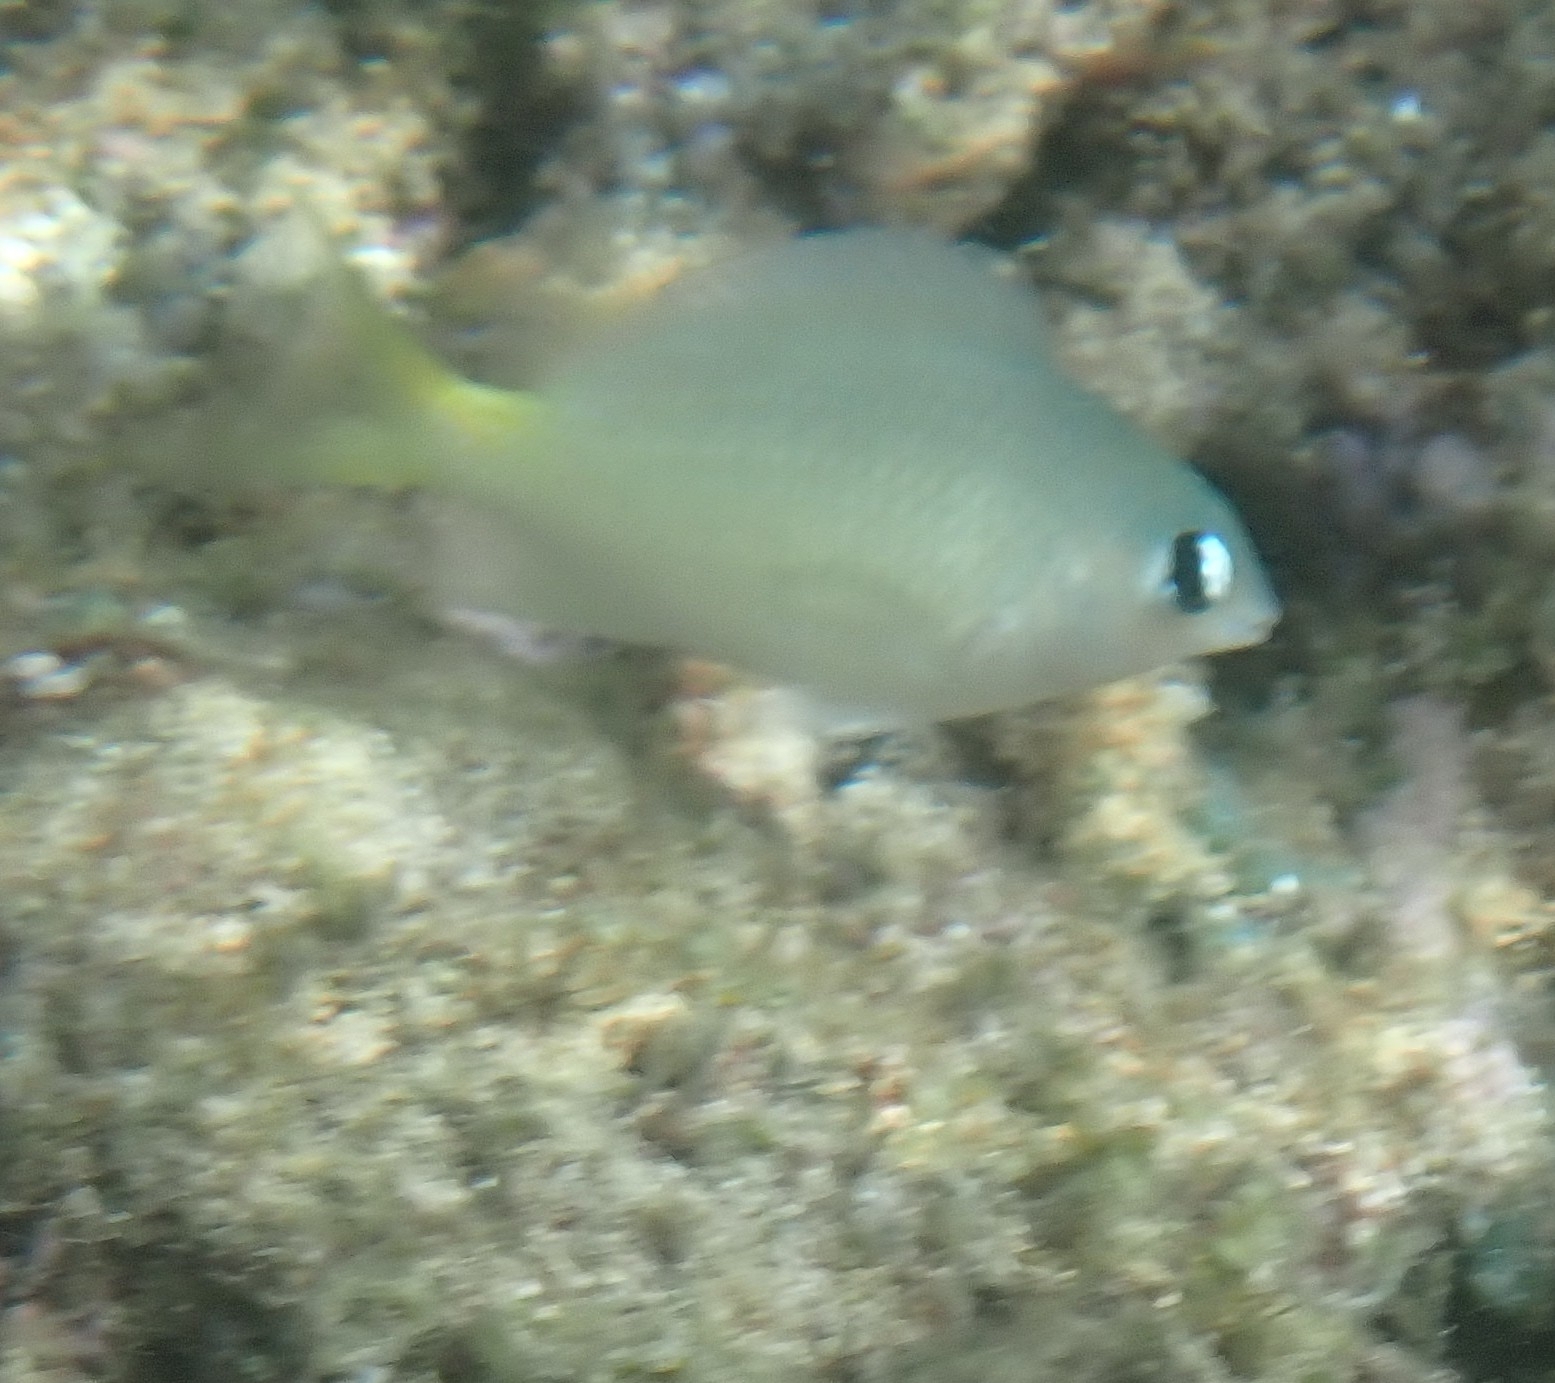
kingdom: Animalia
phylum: Chordata
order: Perciformes
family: Pomacentridae
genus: Plectroglyphidodon
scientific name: Plectroglyphidodon imparipennis
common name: Brighteye damsel
